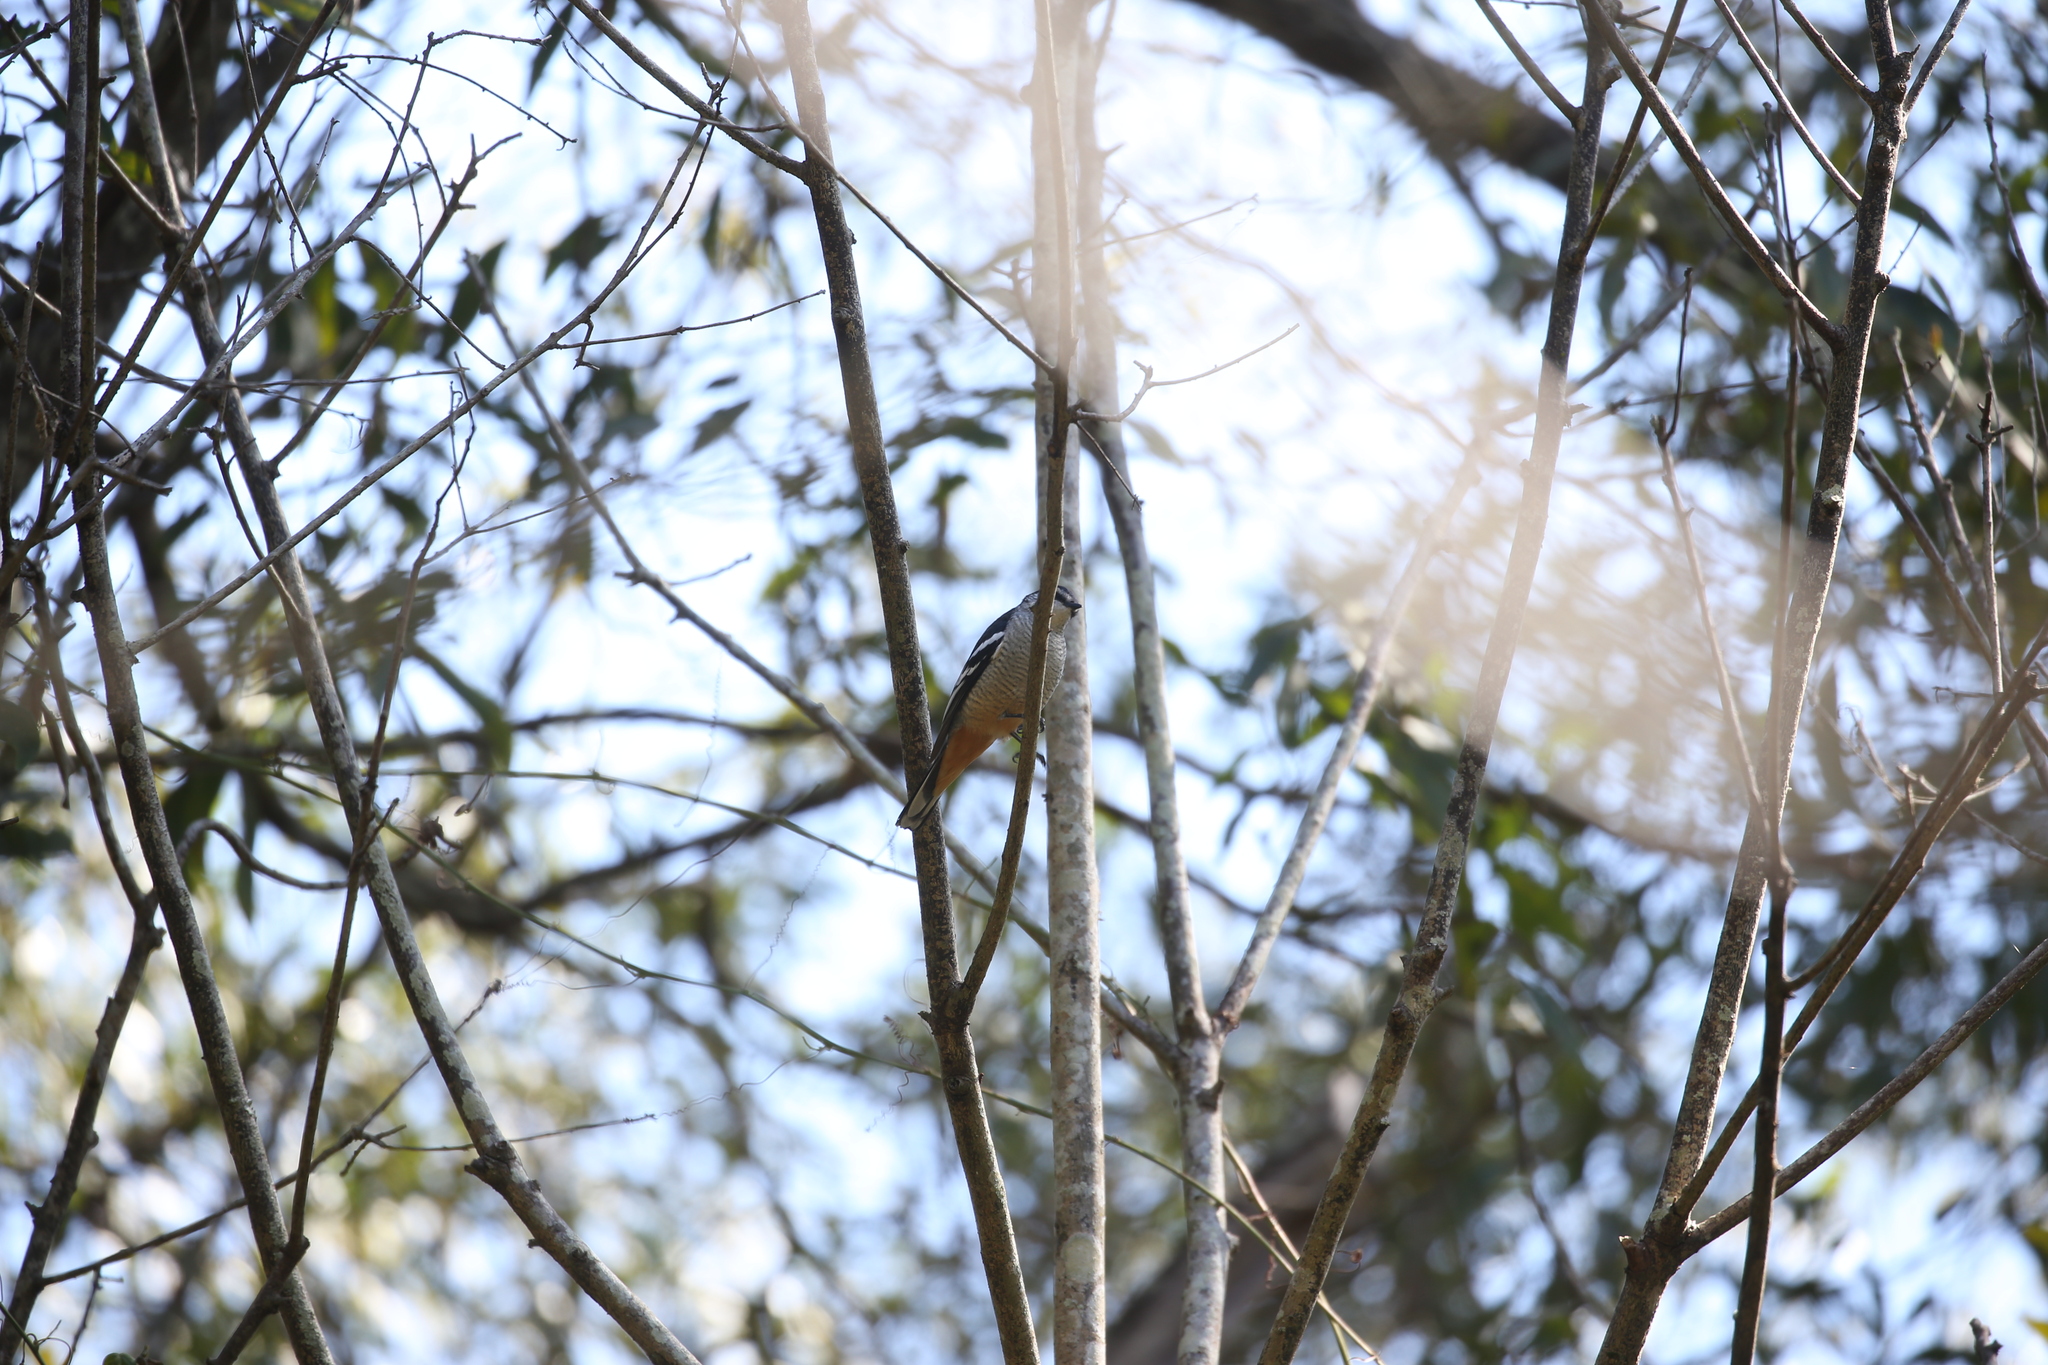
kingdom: Animalia
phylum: Chordata
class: Aves
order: Passeriformes
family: Campephagidae
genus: Lalage
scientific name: Lalage leucomela
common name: Varied triller
